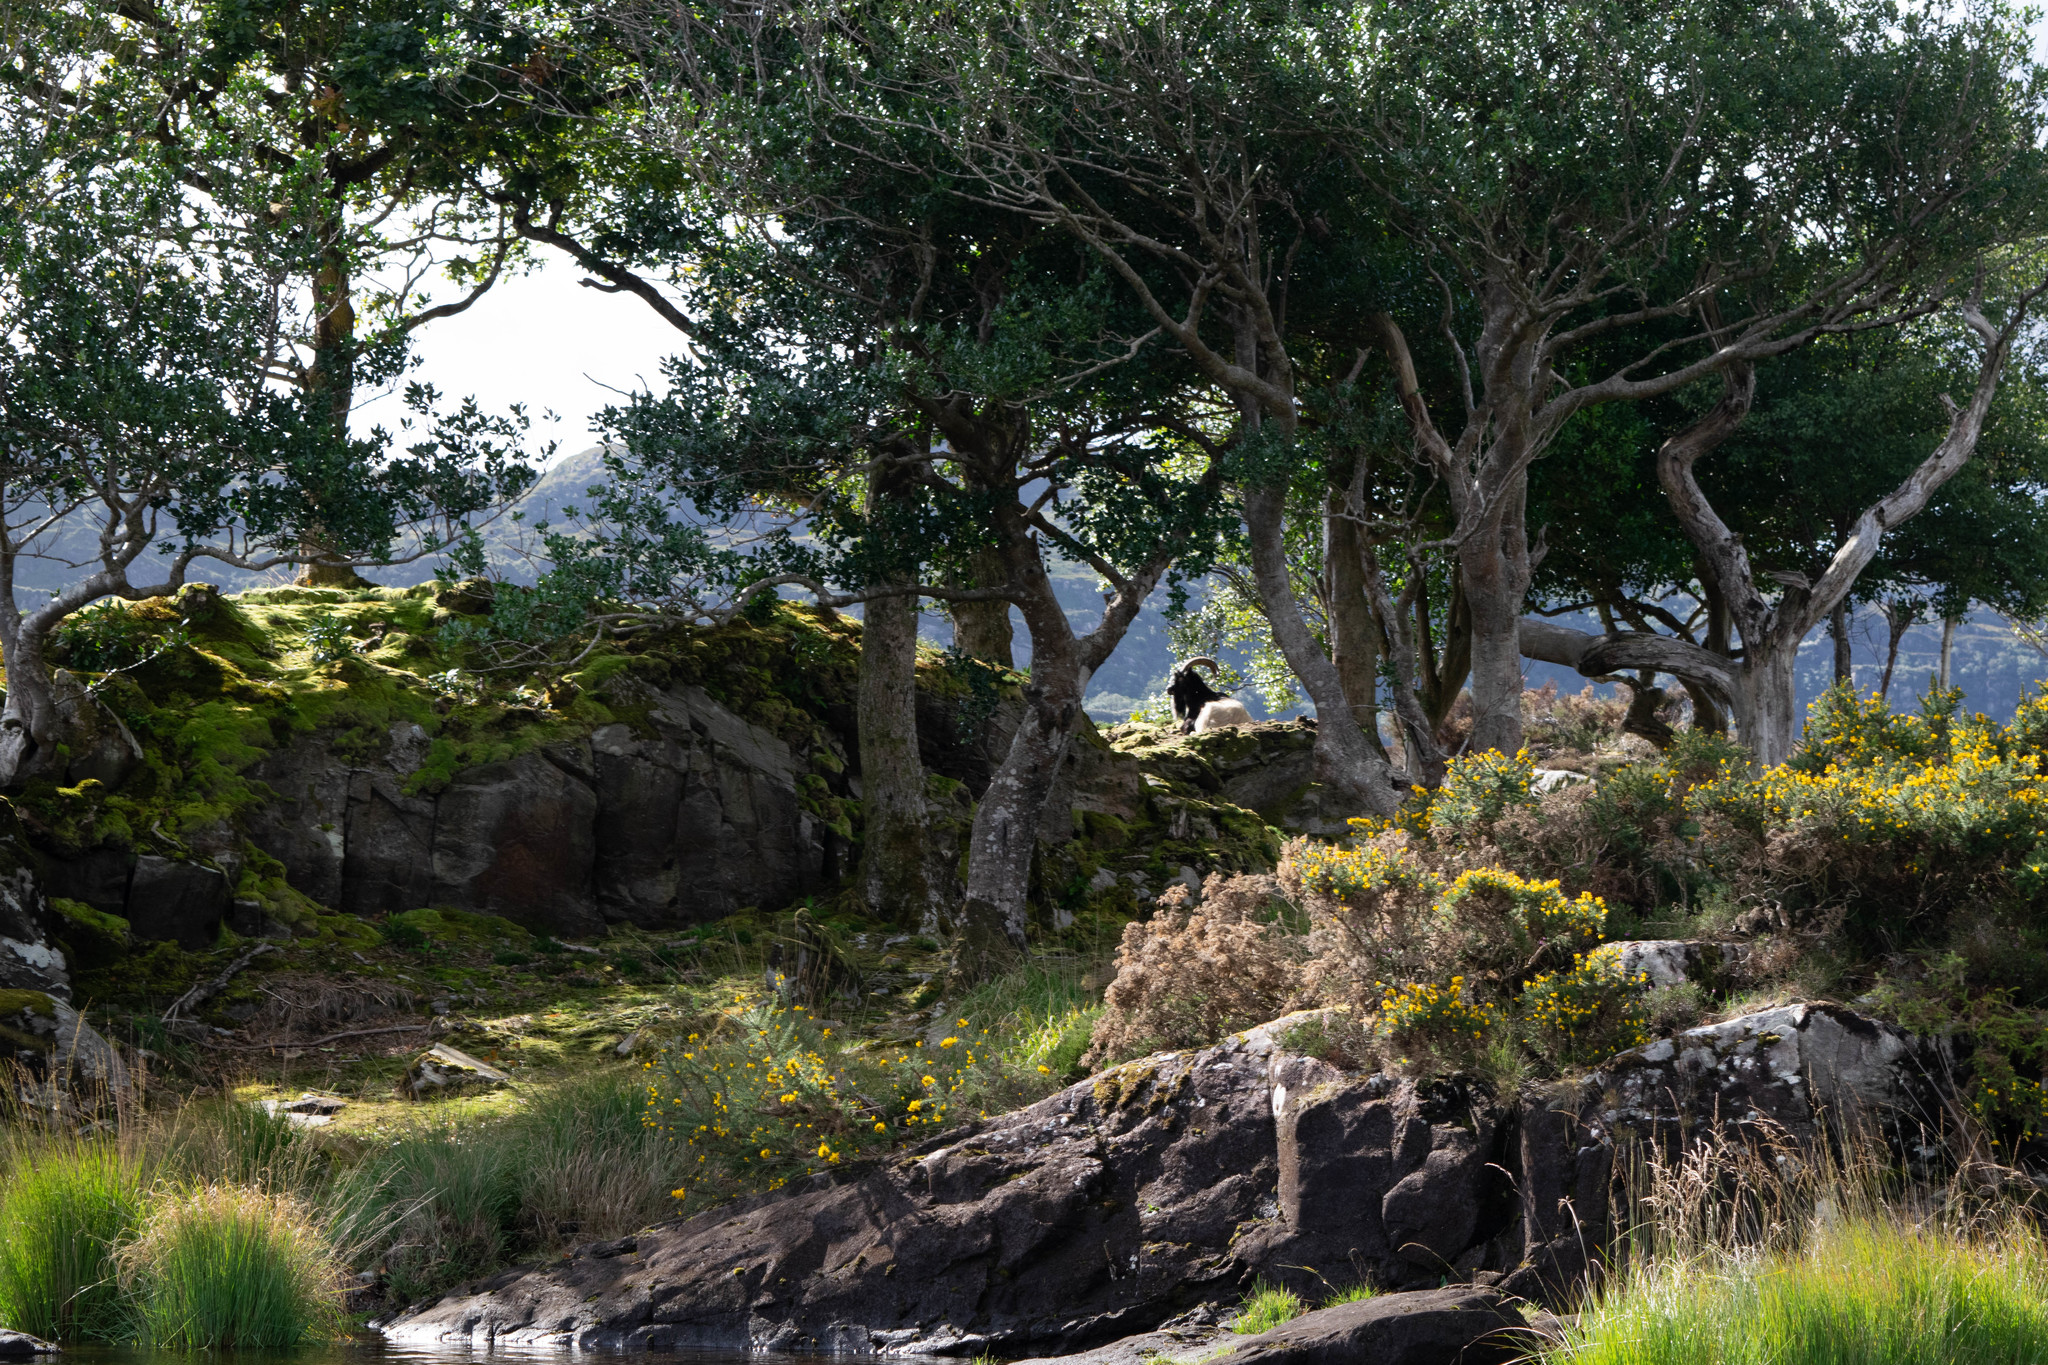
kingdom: Animalia
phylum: Chordata
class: Mammalia
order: Artiodactyla
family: Bovidae
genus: Capra
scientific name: Capra hircus
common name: Domestic goat
